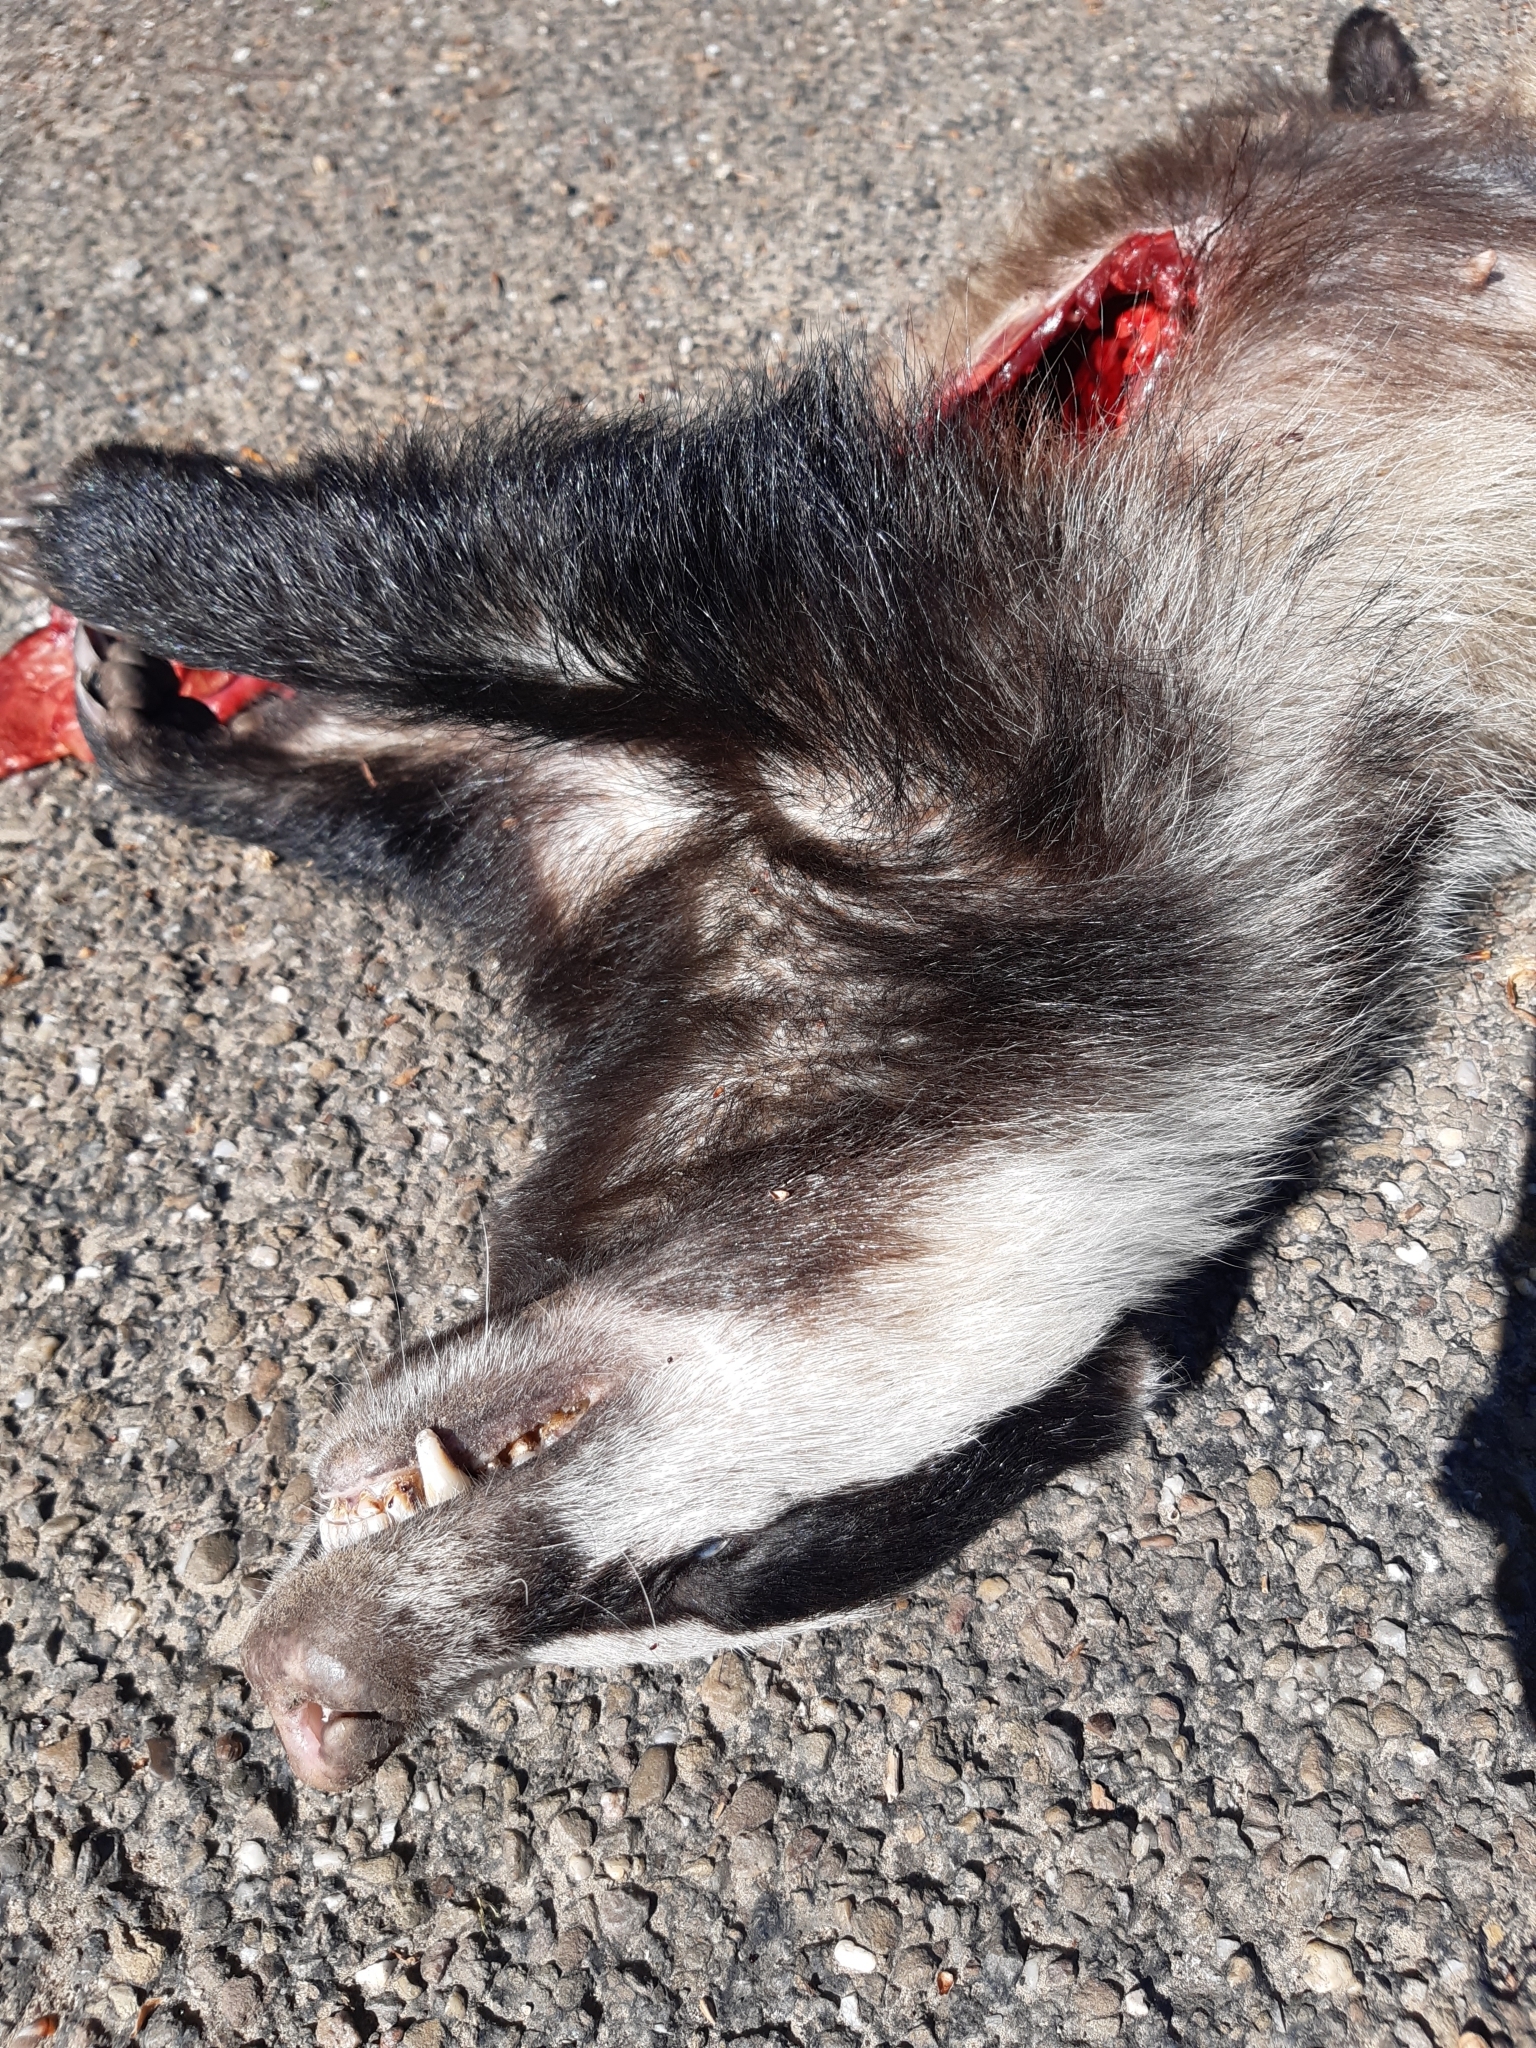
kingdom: Animalia
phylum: Chordata
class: Mammalia
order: Carnivora
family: Mustelidae
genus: Meles
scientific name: Meles meles
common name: Eurasian badger
